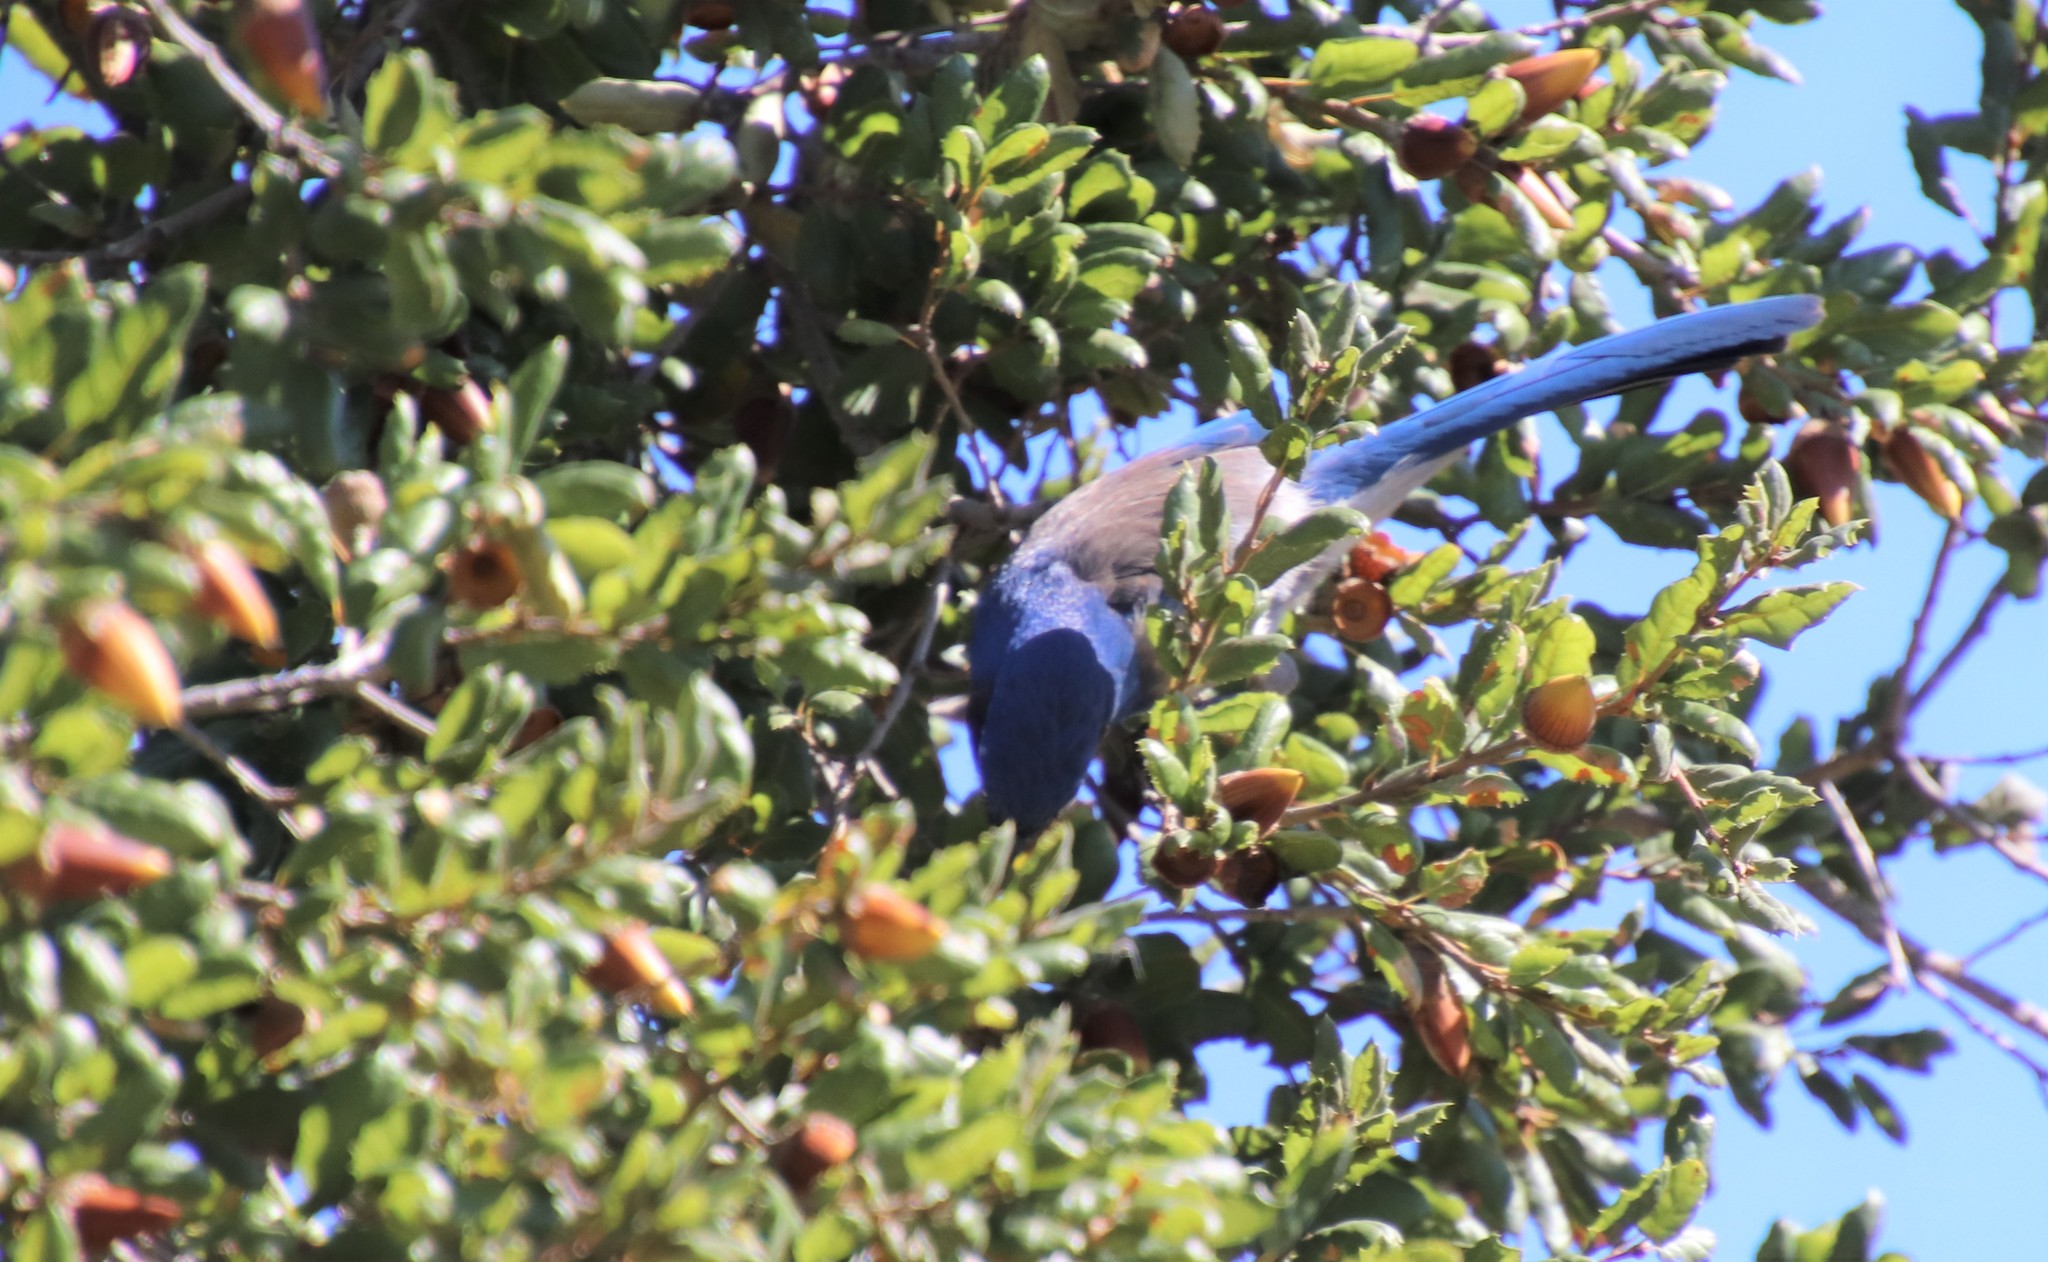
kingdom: Animalia
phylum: Chordata
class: Aves
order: Passeriformes
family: Corvidae
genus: Aphelocoma
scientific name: Aphelocoma californica
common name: California scrub-jay
